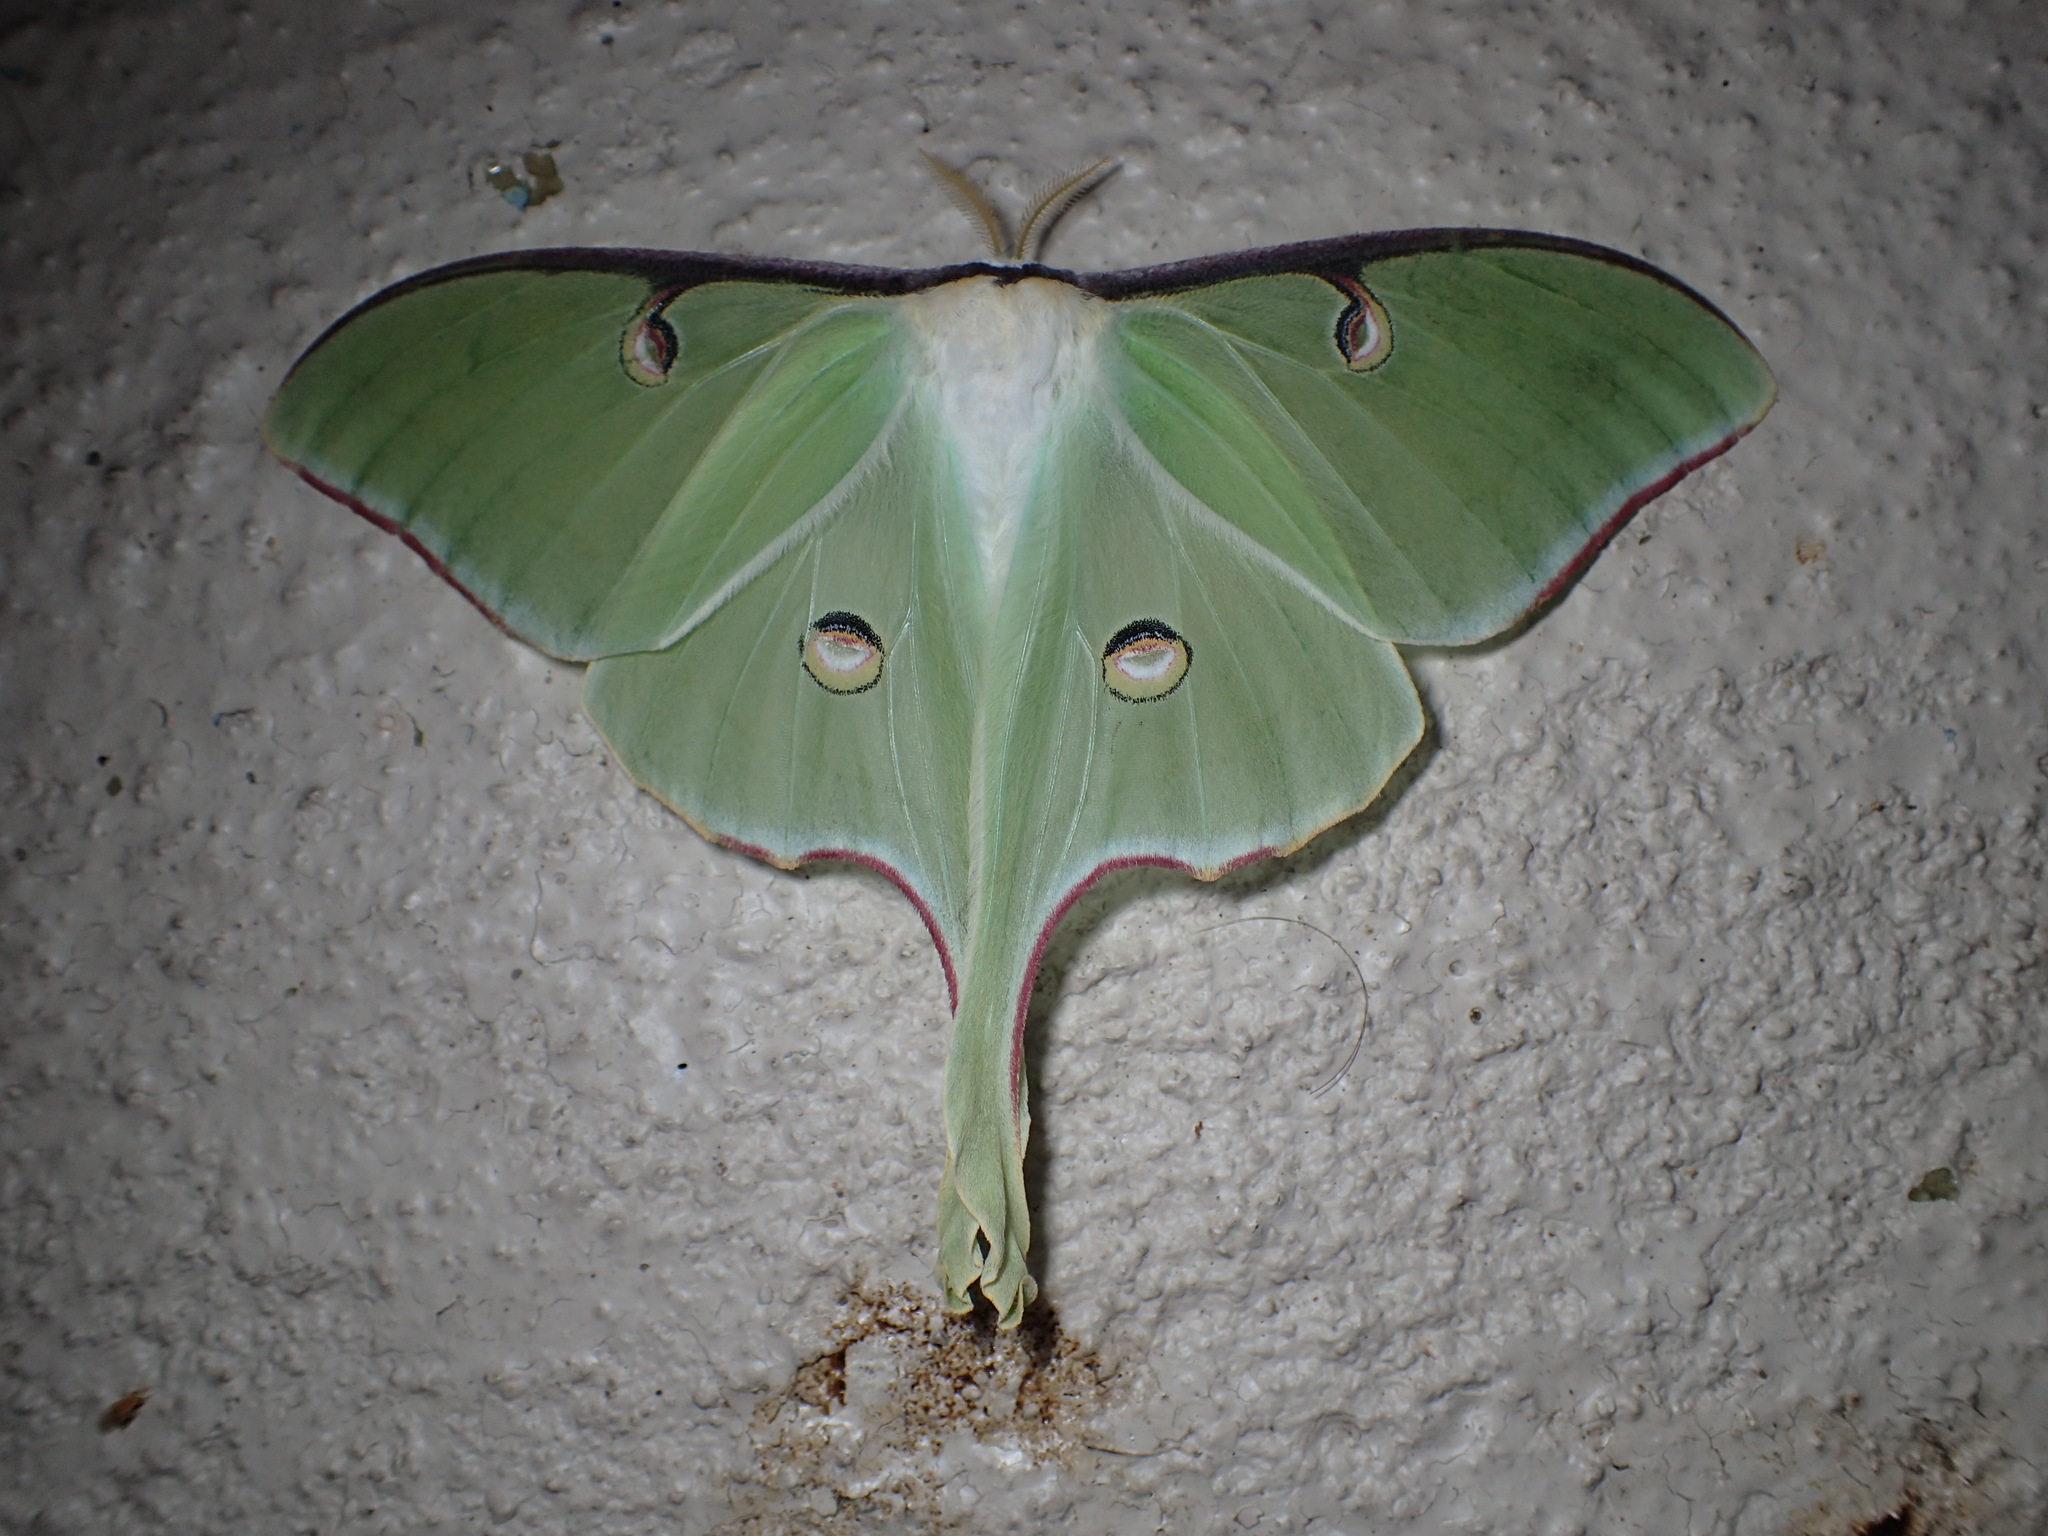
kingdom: Animalia
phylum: Arthropoda
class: Insecta
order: Lepidoptera
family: Saturniidae
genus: Actias
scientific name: Actias luna
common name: Luna moth
